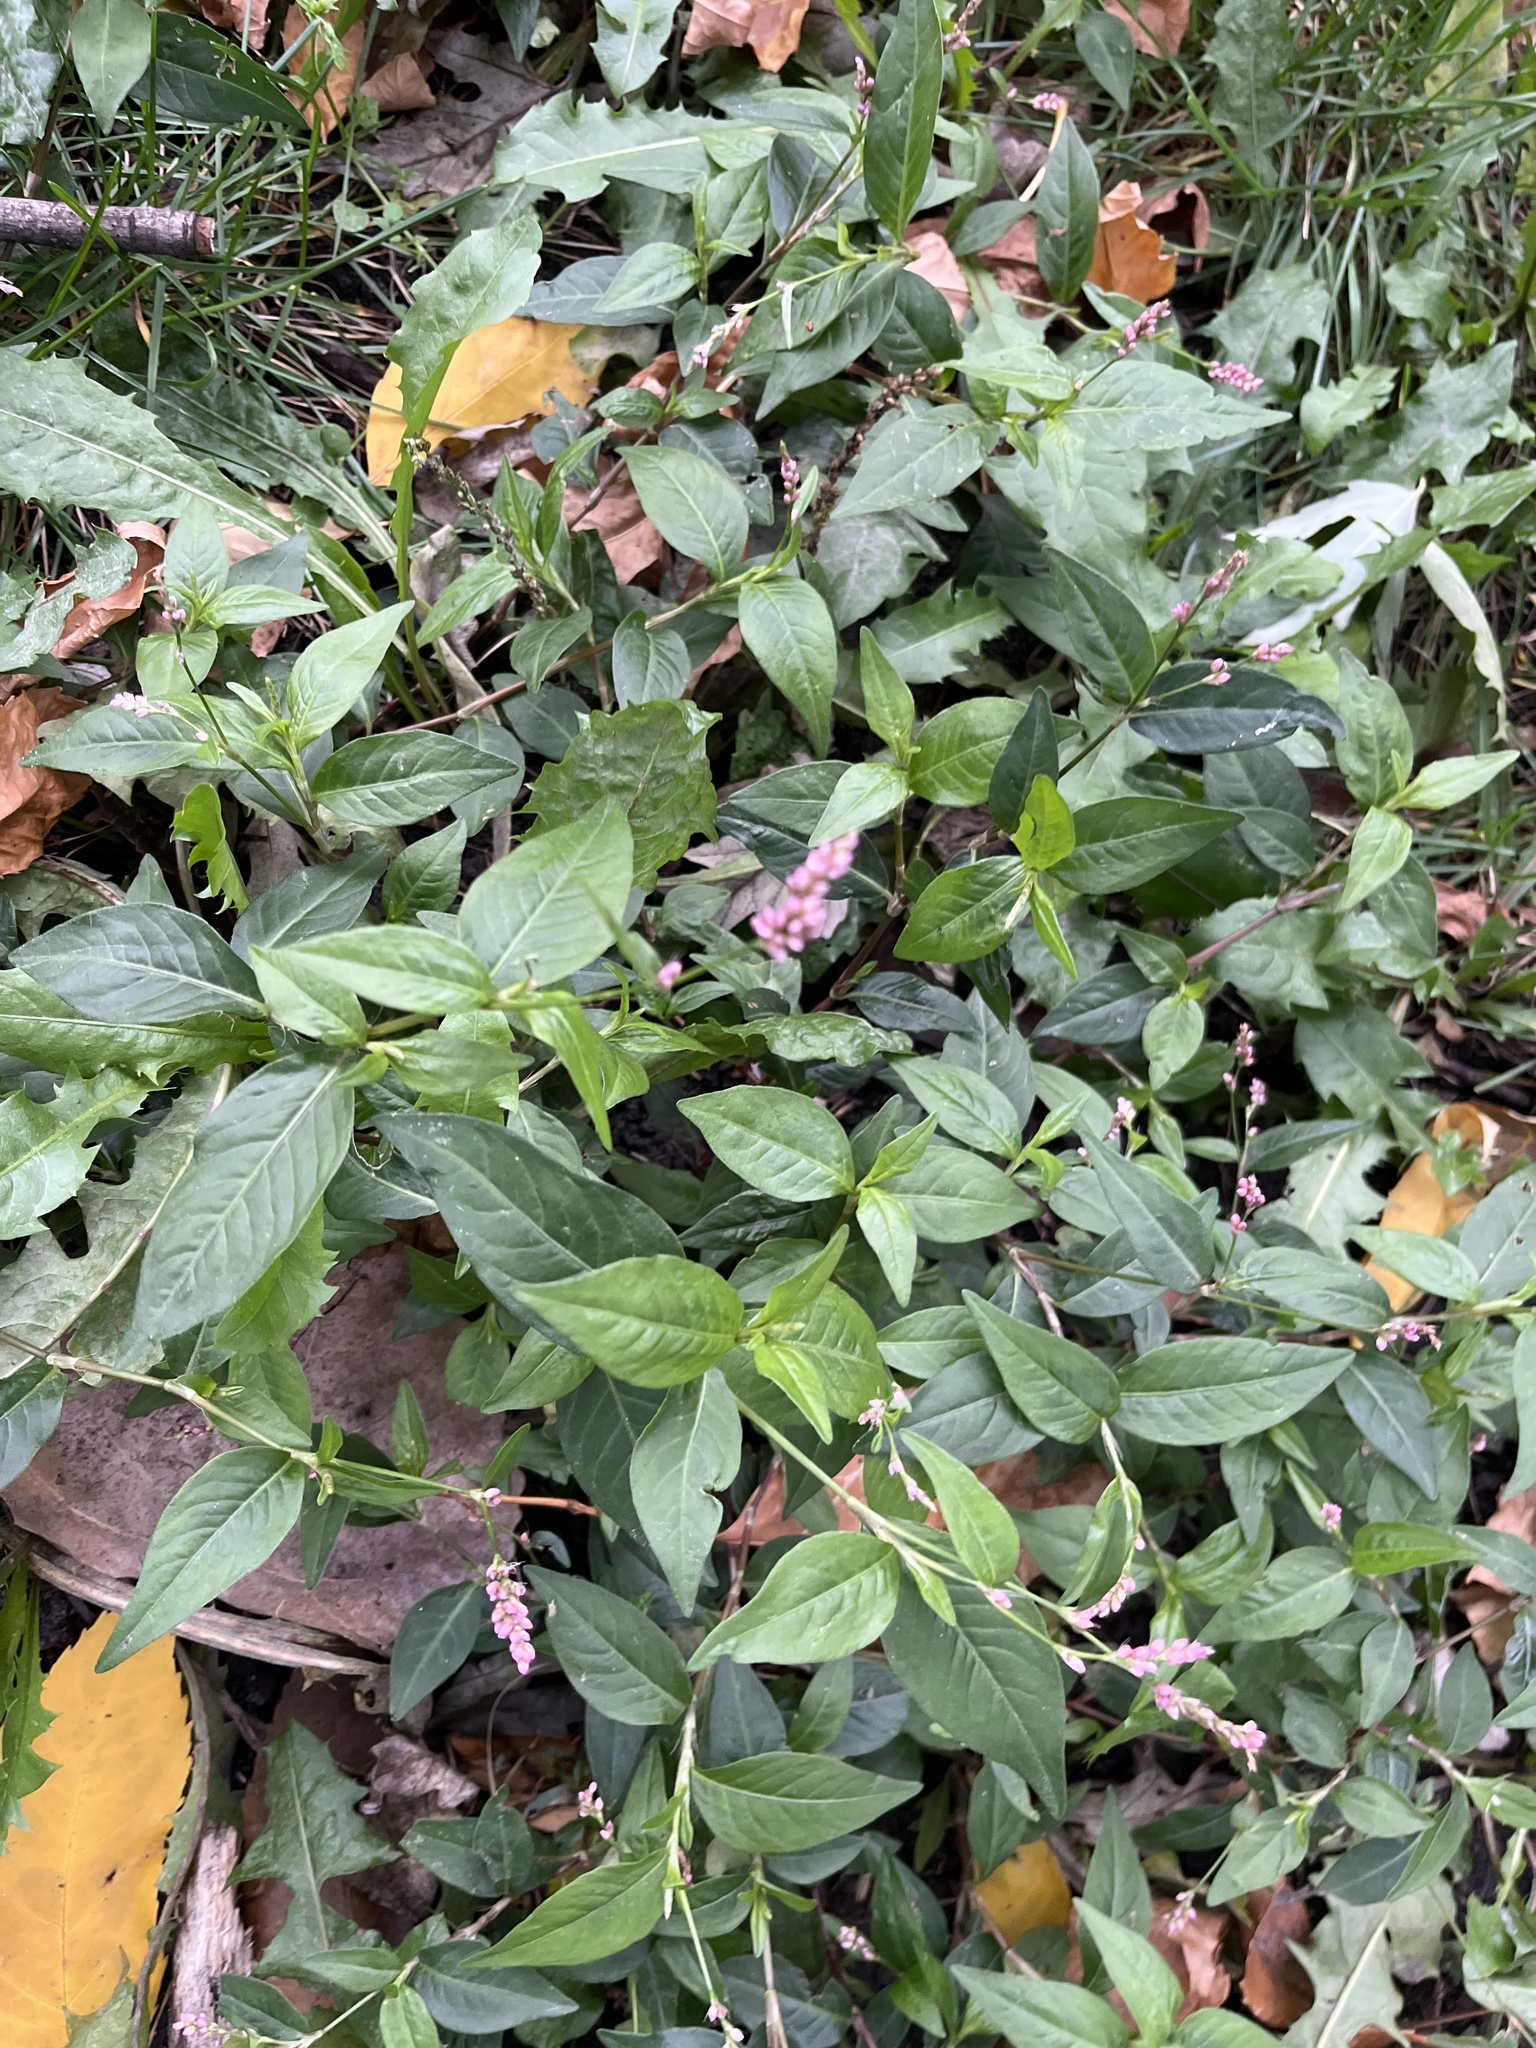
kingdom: Plantae
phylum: Tracheophyta
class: Magnoliopsida
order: Caryophyllales
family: Polygonaceae
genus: Persicaria
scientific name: Persicaria longiseta
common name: Bristly lady's-thumb
